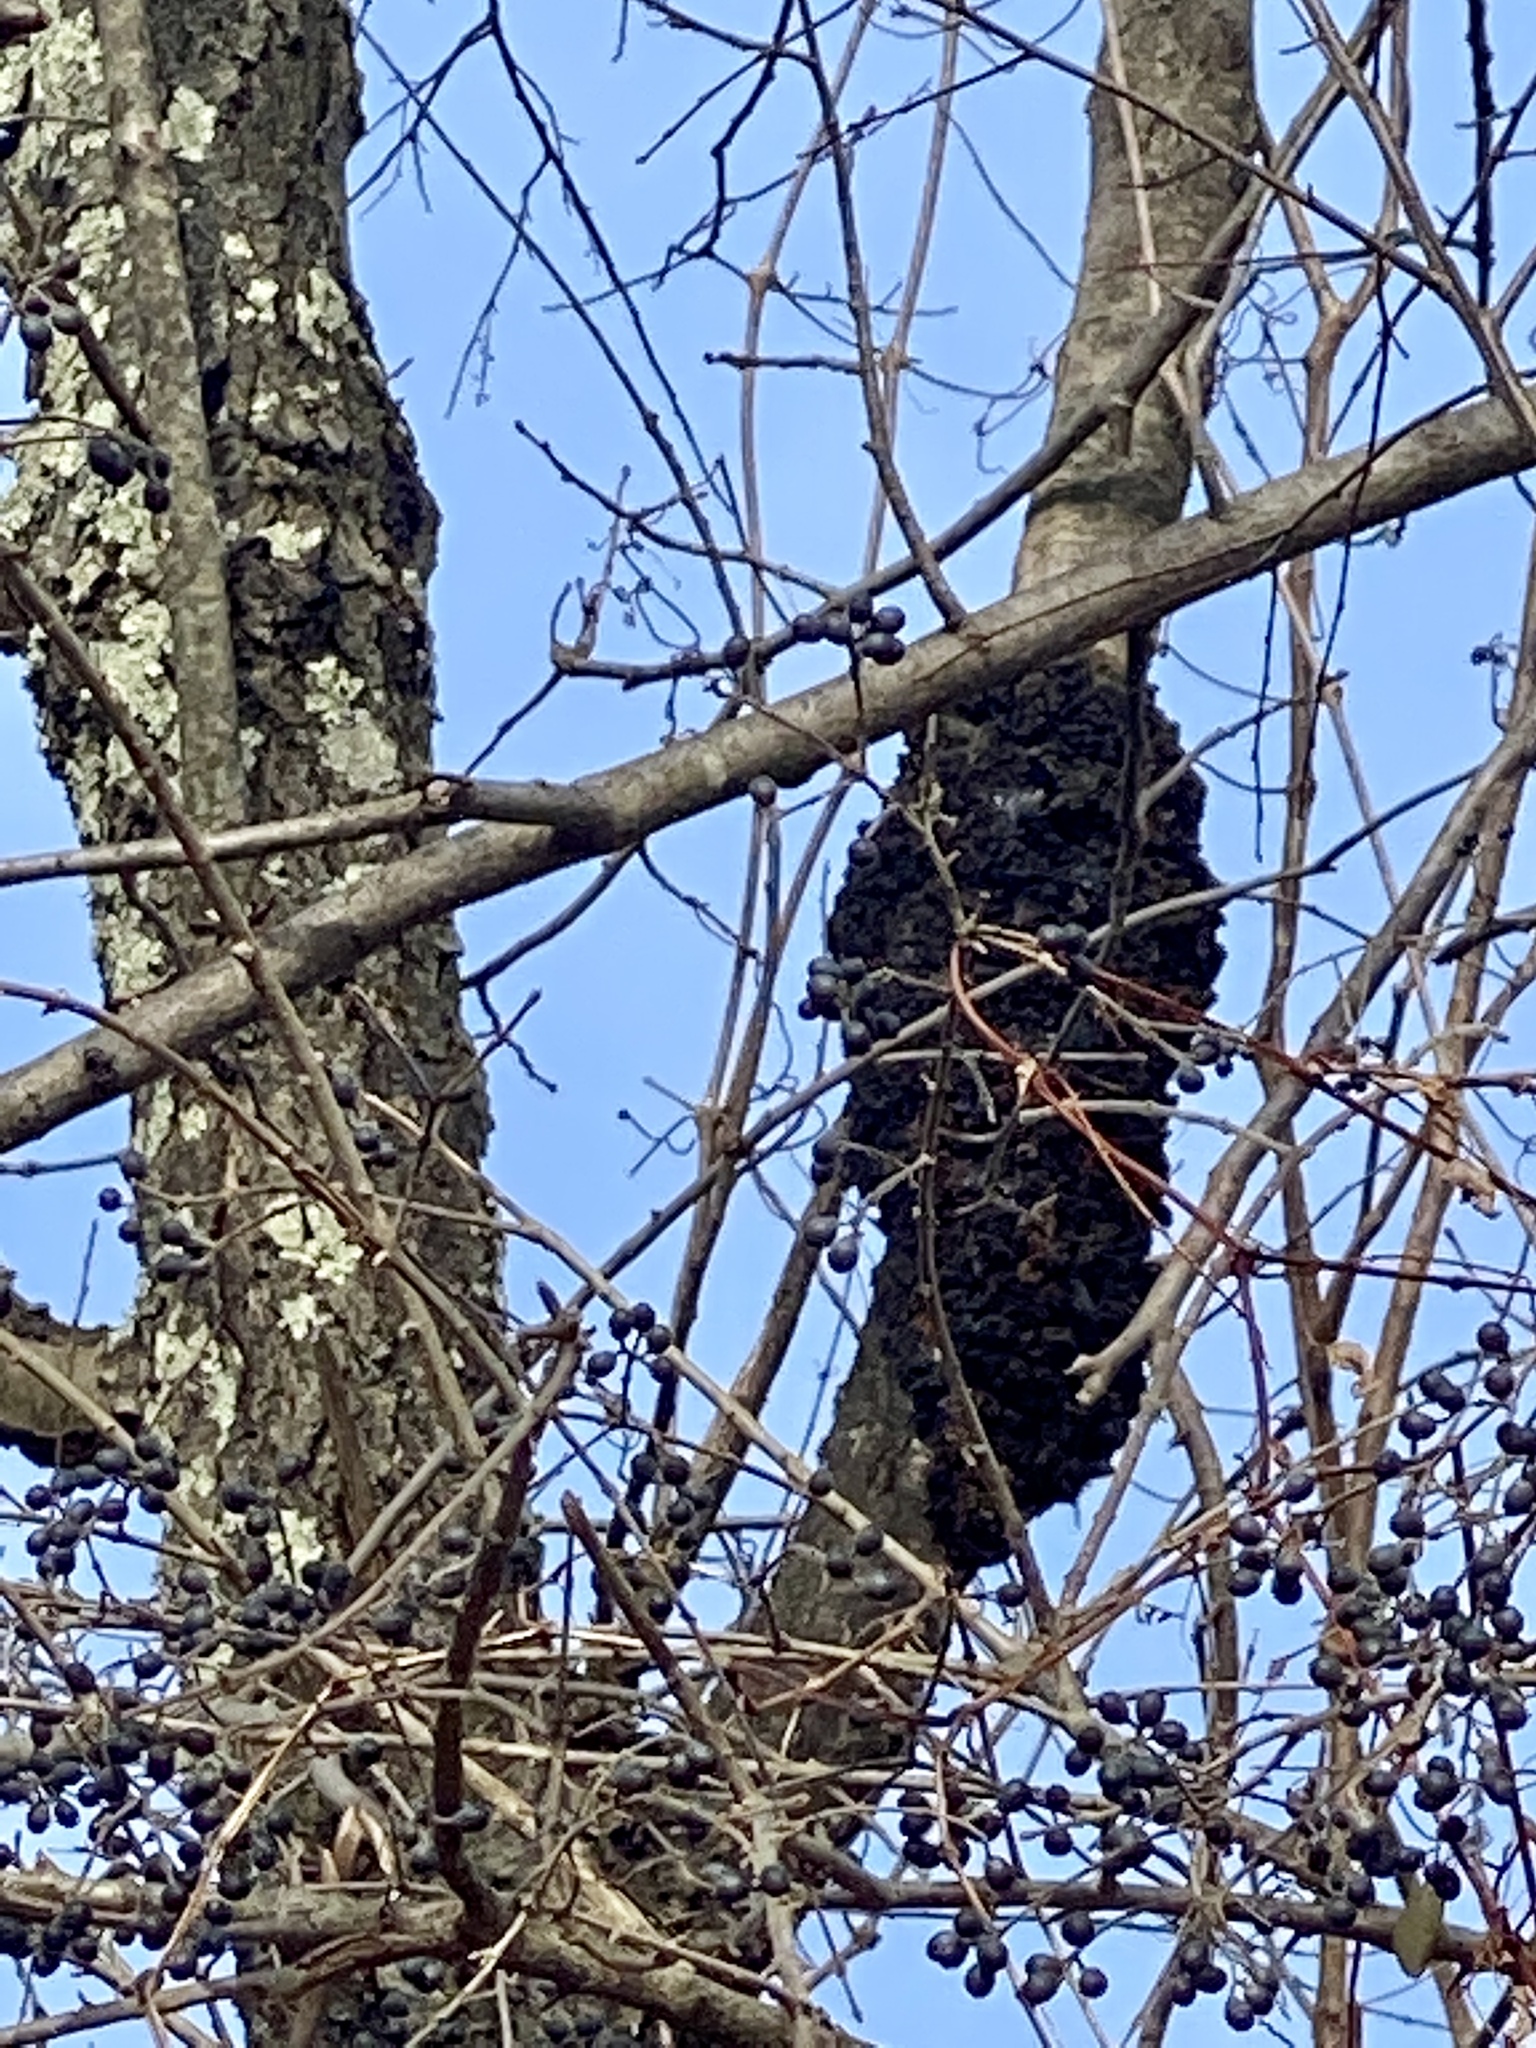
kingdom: Fungi
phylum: Ascomycota
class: Dothideomycetes
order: Venturiales
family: Venturiaceae
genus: Apiosporina
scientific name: Apiosporina morbosa
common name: Black knot
